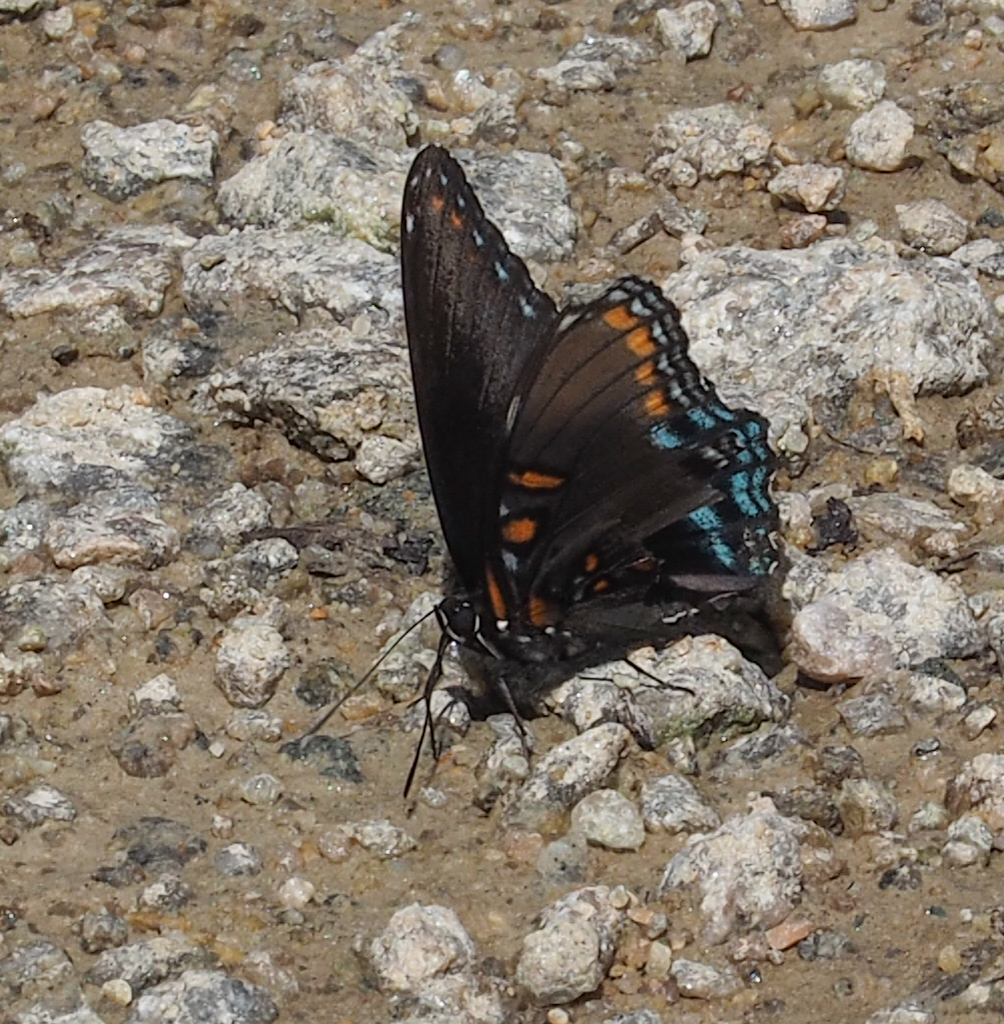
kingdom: Animalia
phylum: Arthropoda
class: Insecta
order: Lepidoptera
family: Nymphalidae
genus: Limenitis
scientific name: Limenitis astyanax
